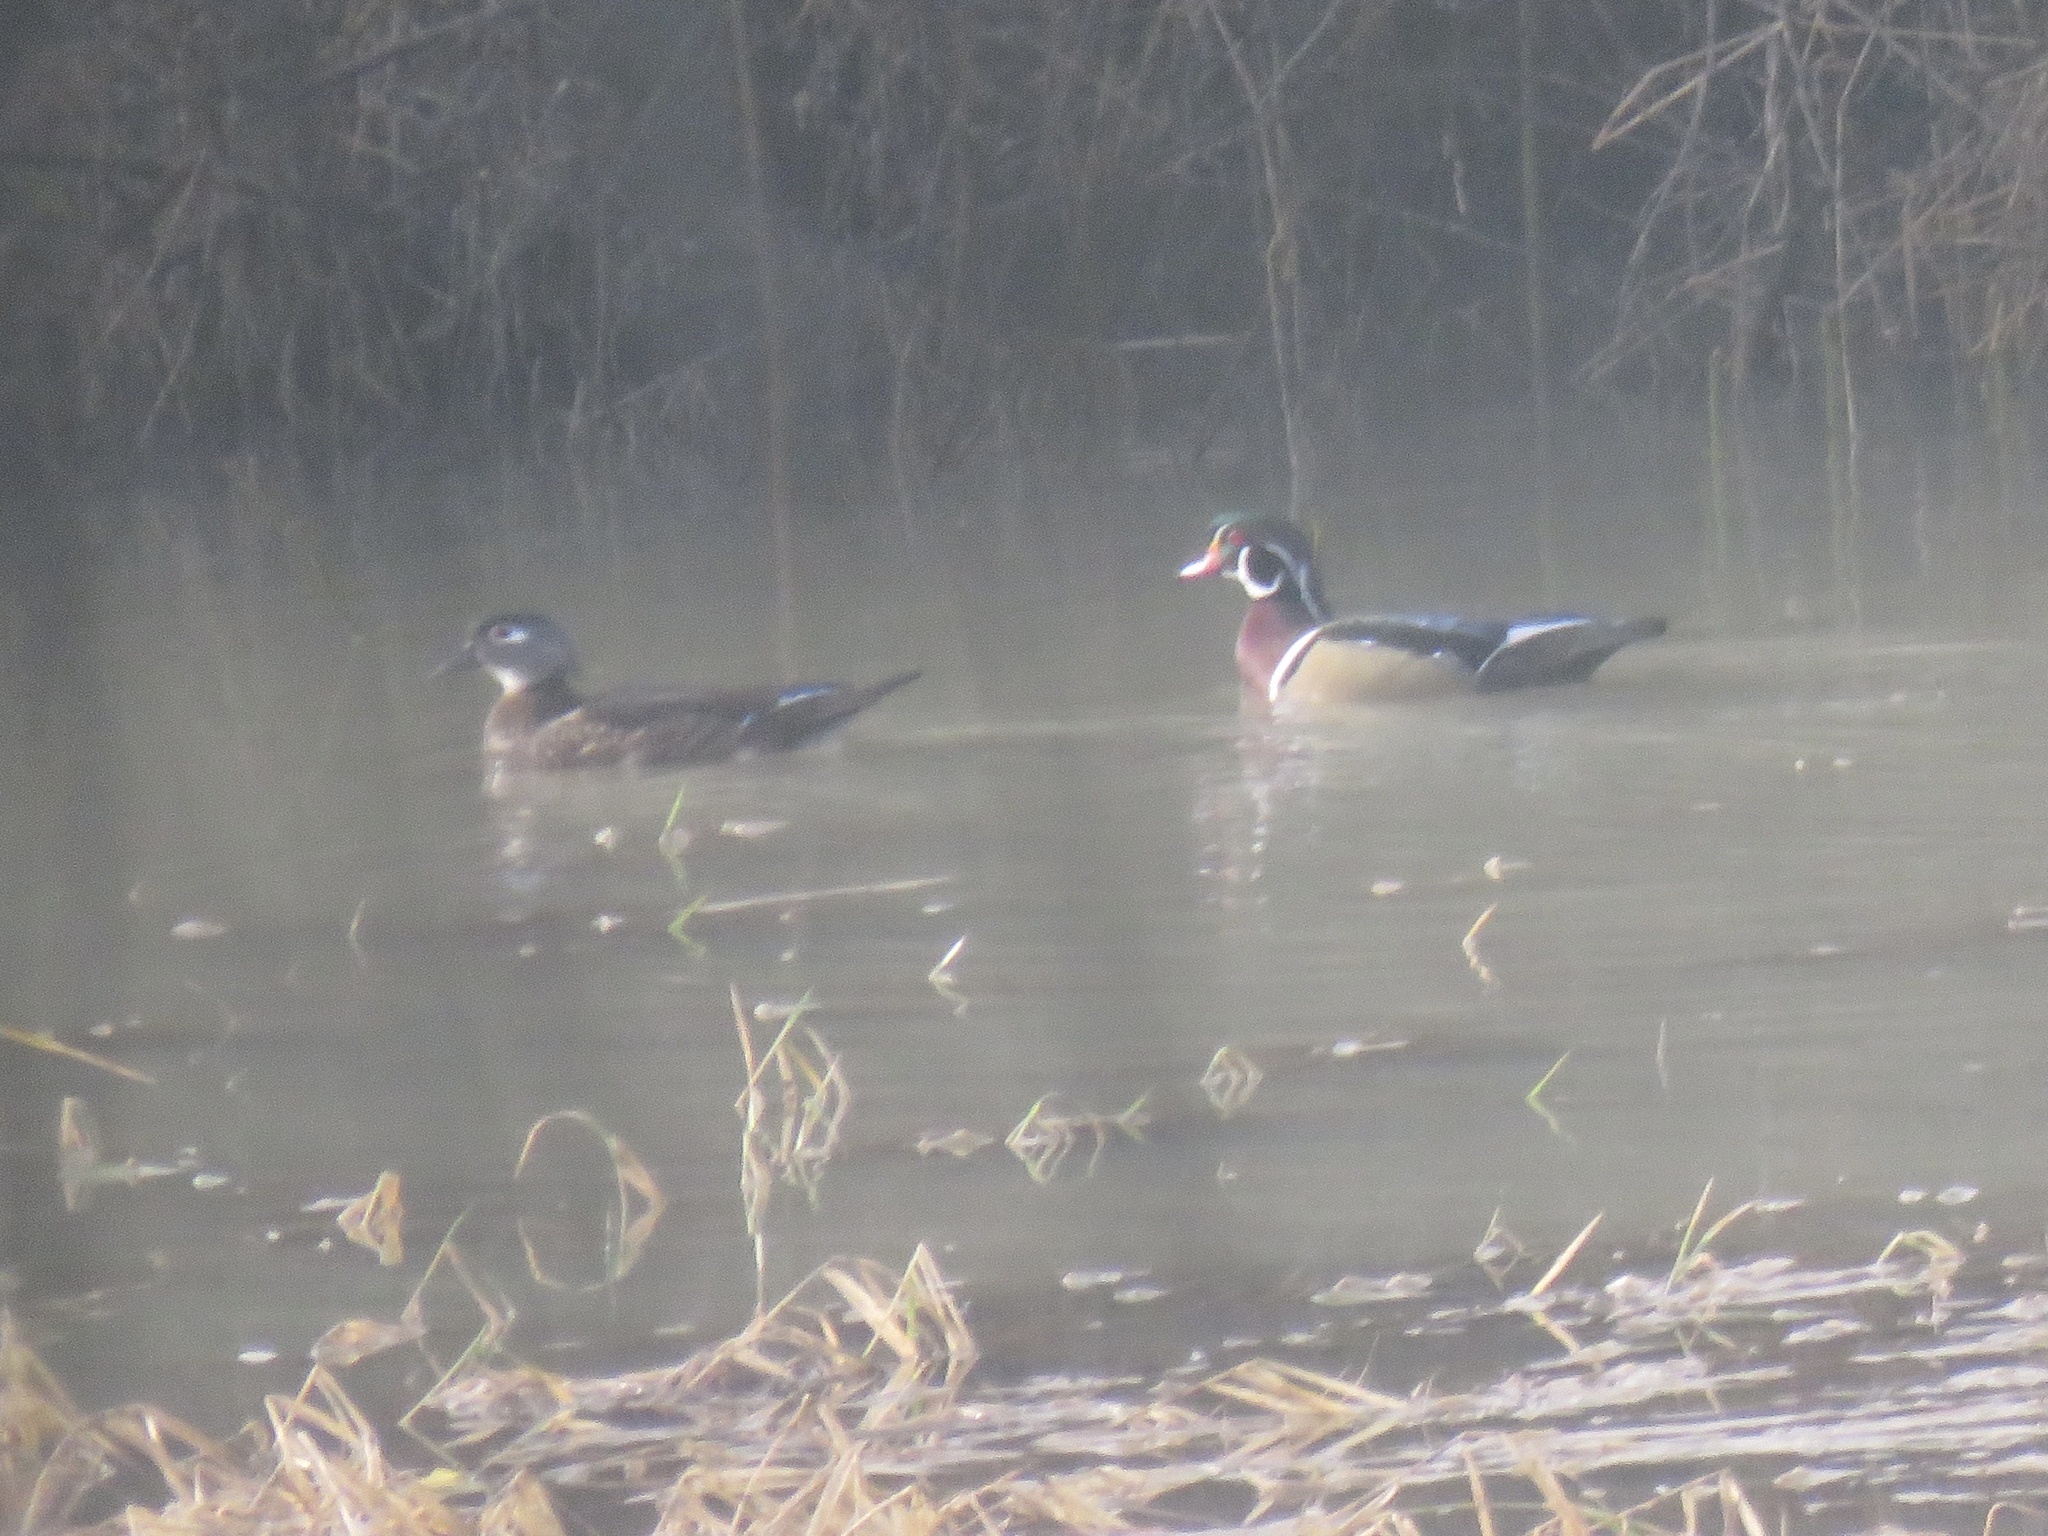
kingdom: Animalia
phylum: Chordata
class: Aves
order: Anseriformes
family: Anatidae
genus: Aix
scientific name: Aix sponsa
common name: Wood duck
